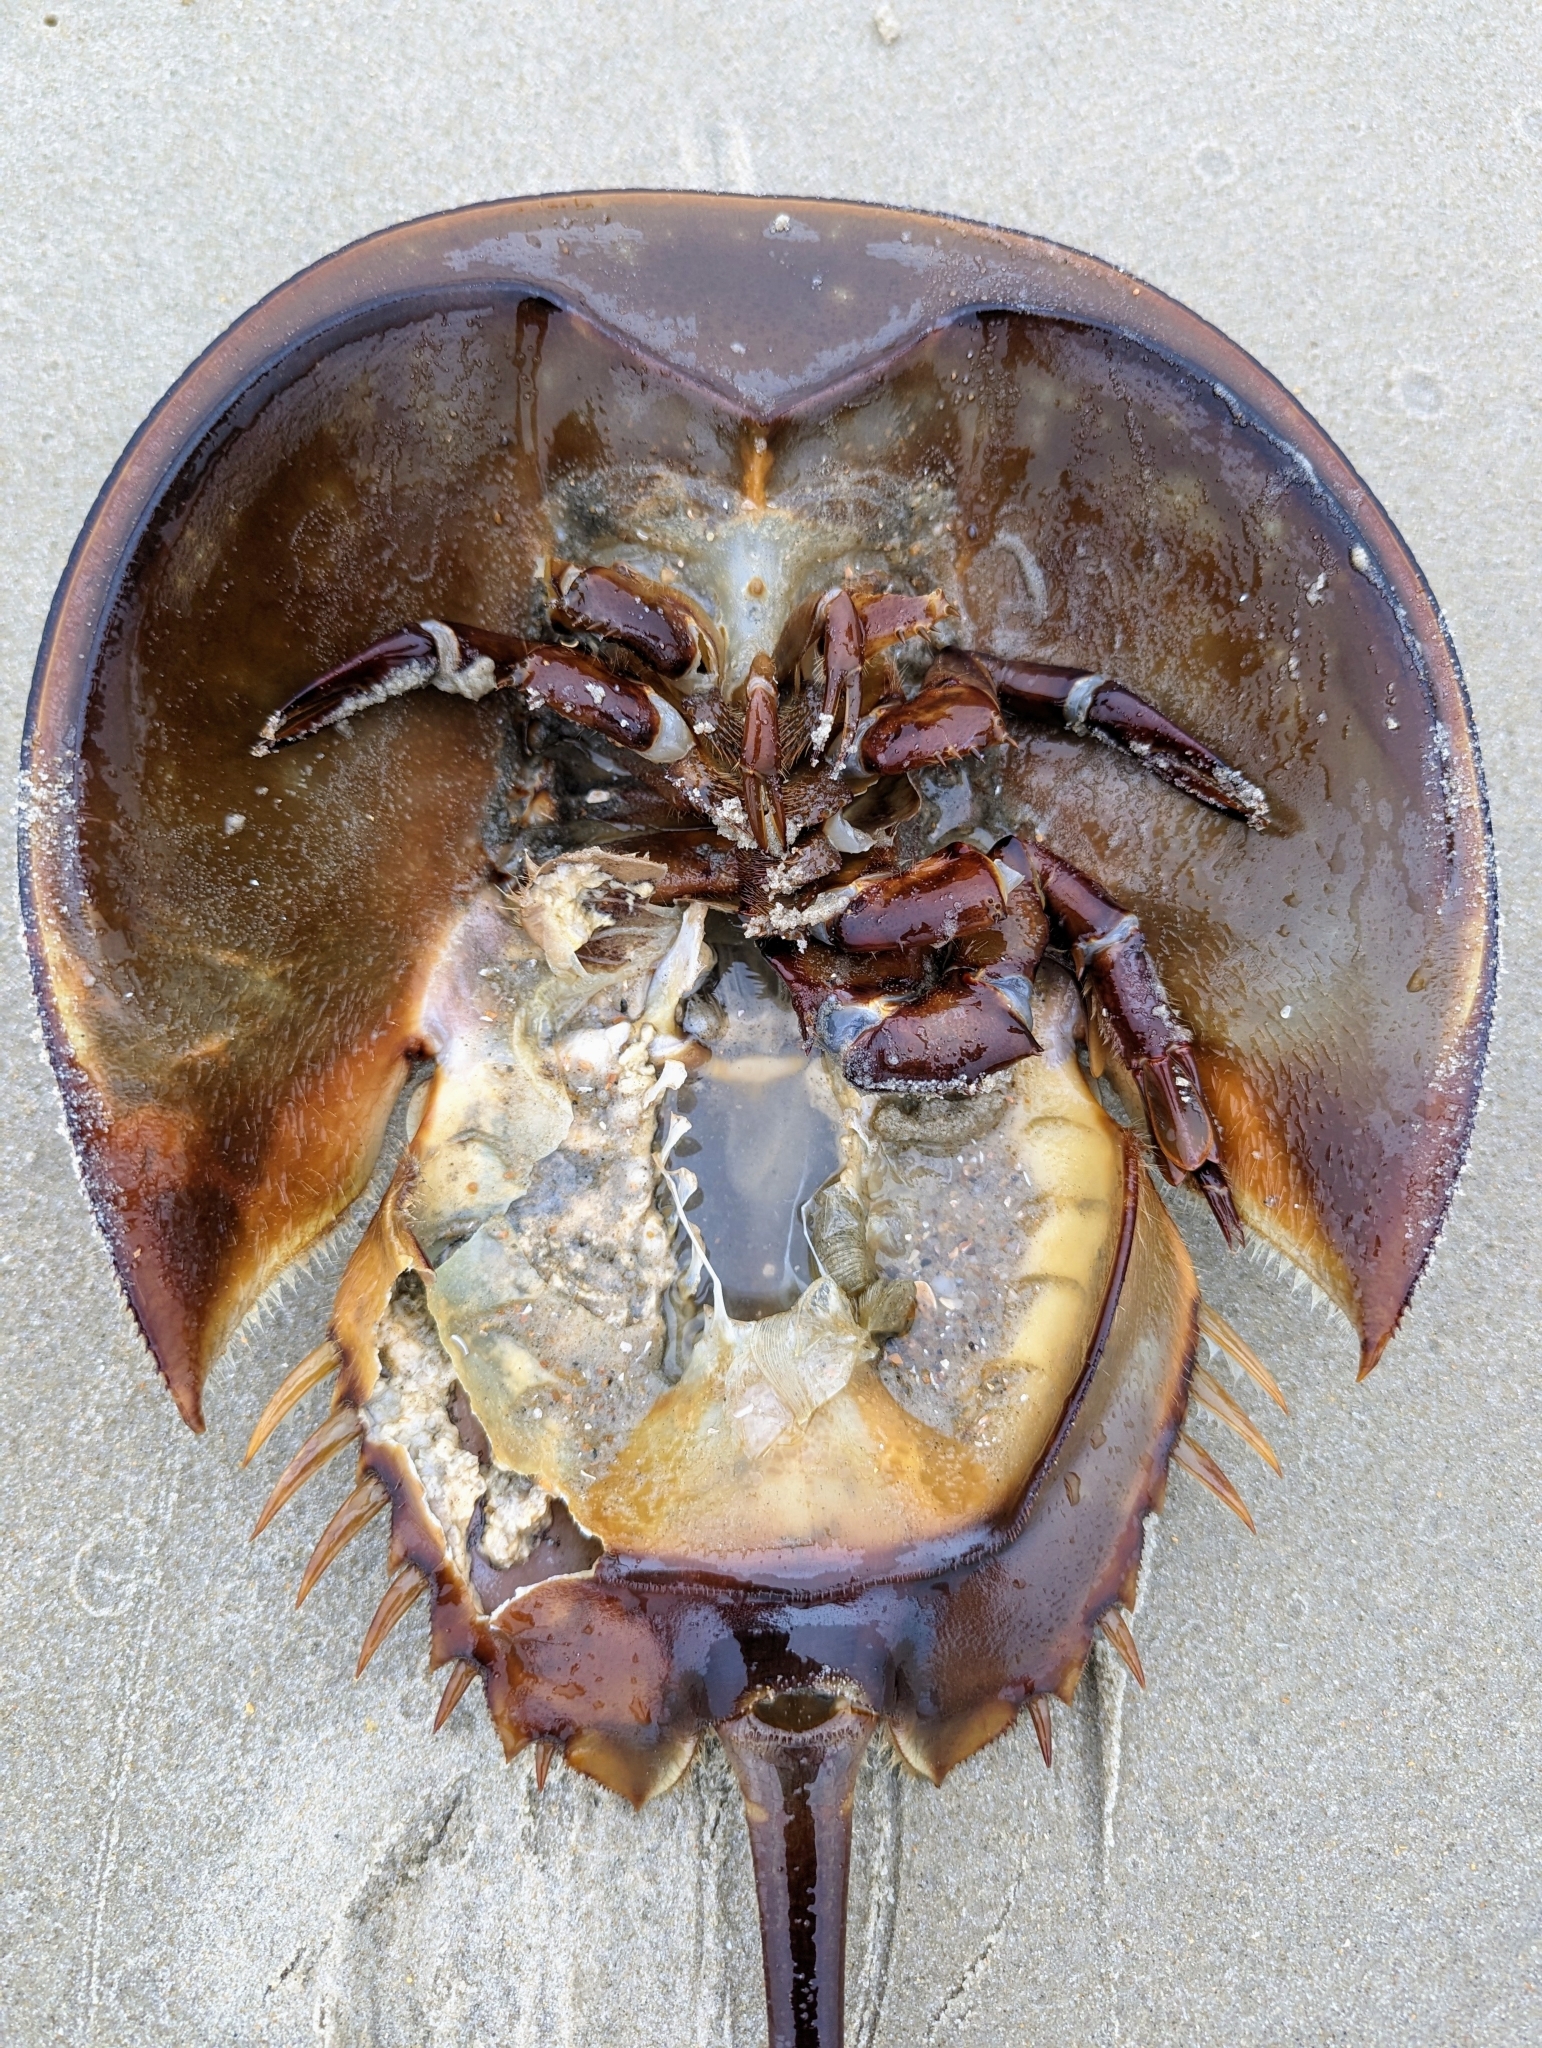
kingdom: Animalia
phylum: Arthropoda
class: Merostomata
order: Xiphosurida
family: Limulidae
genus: Limulus
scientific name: Limulus polyphemus
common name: Horseshoe crab
